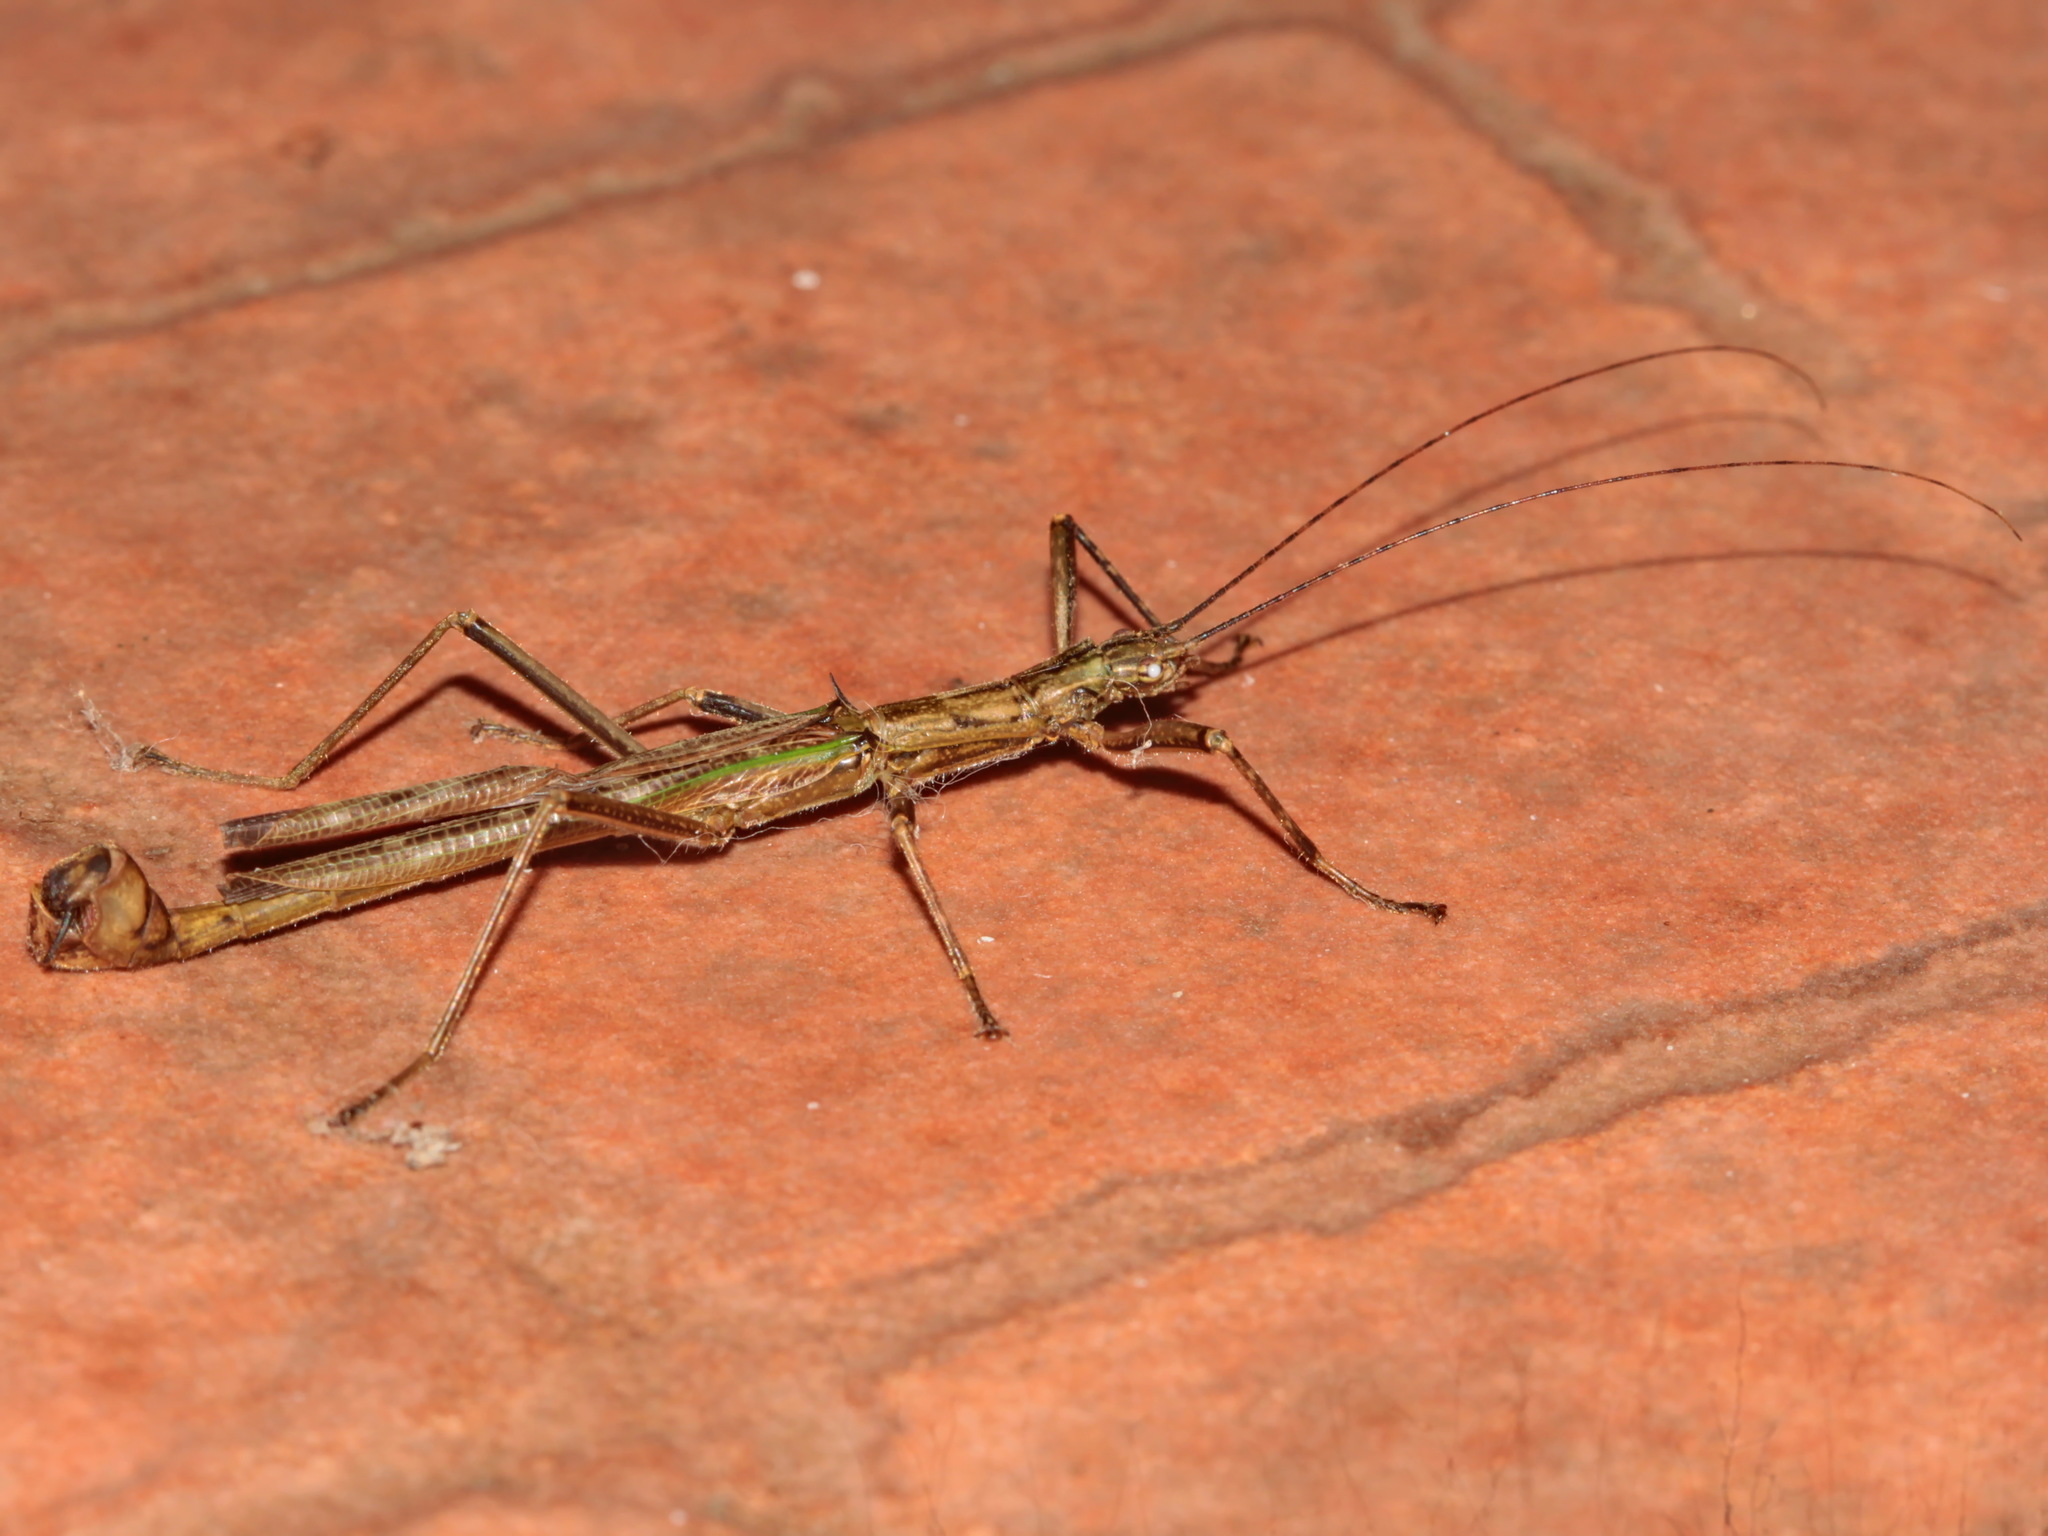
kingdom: Animalia
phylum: Arthropoda
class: Insecta
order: Phasmida
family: Aschiphasmatidae
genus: Presbistus
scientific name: Presbistus peleus
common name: Green striped flying stick
